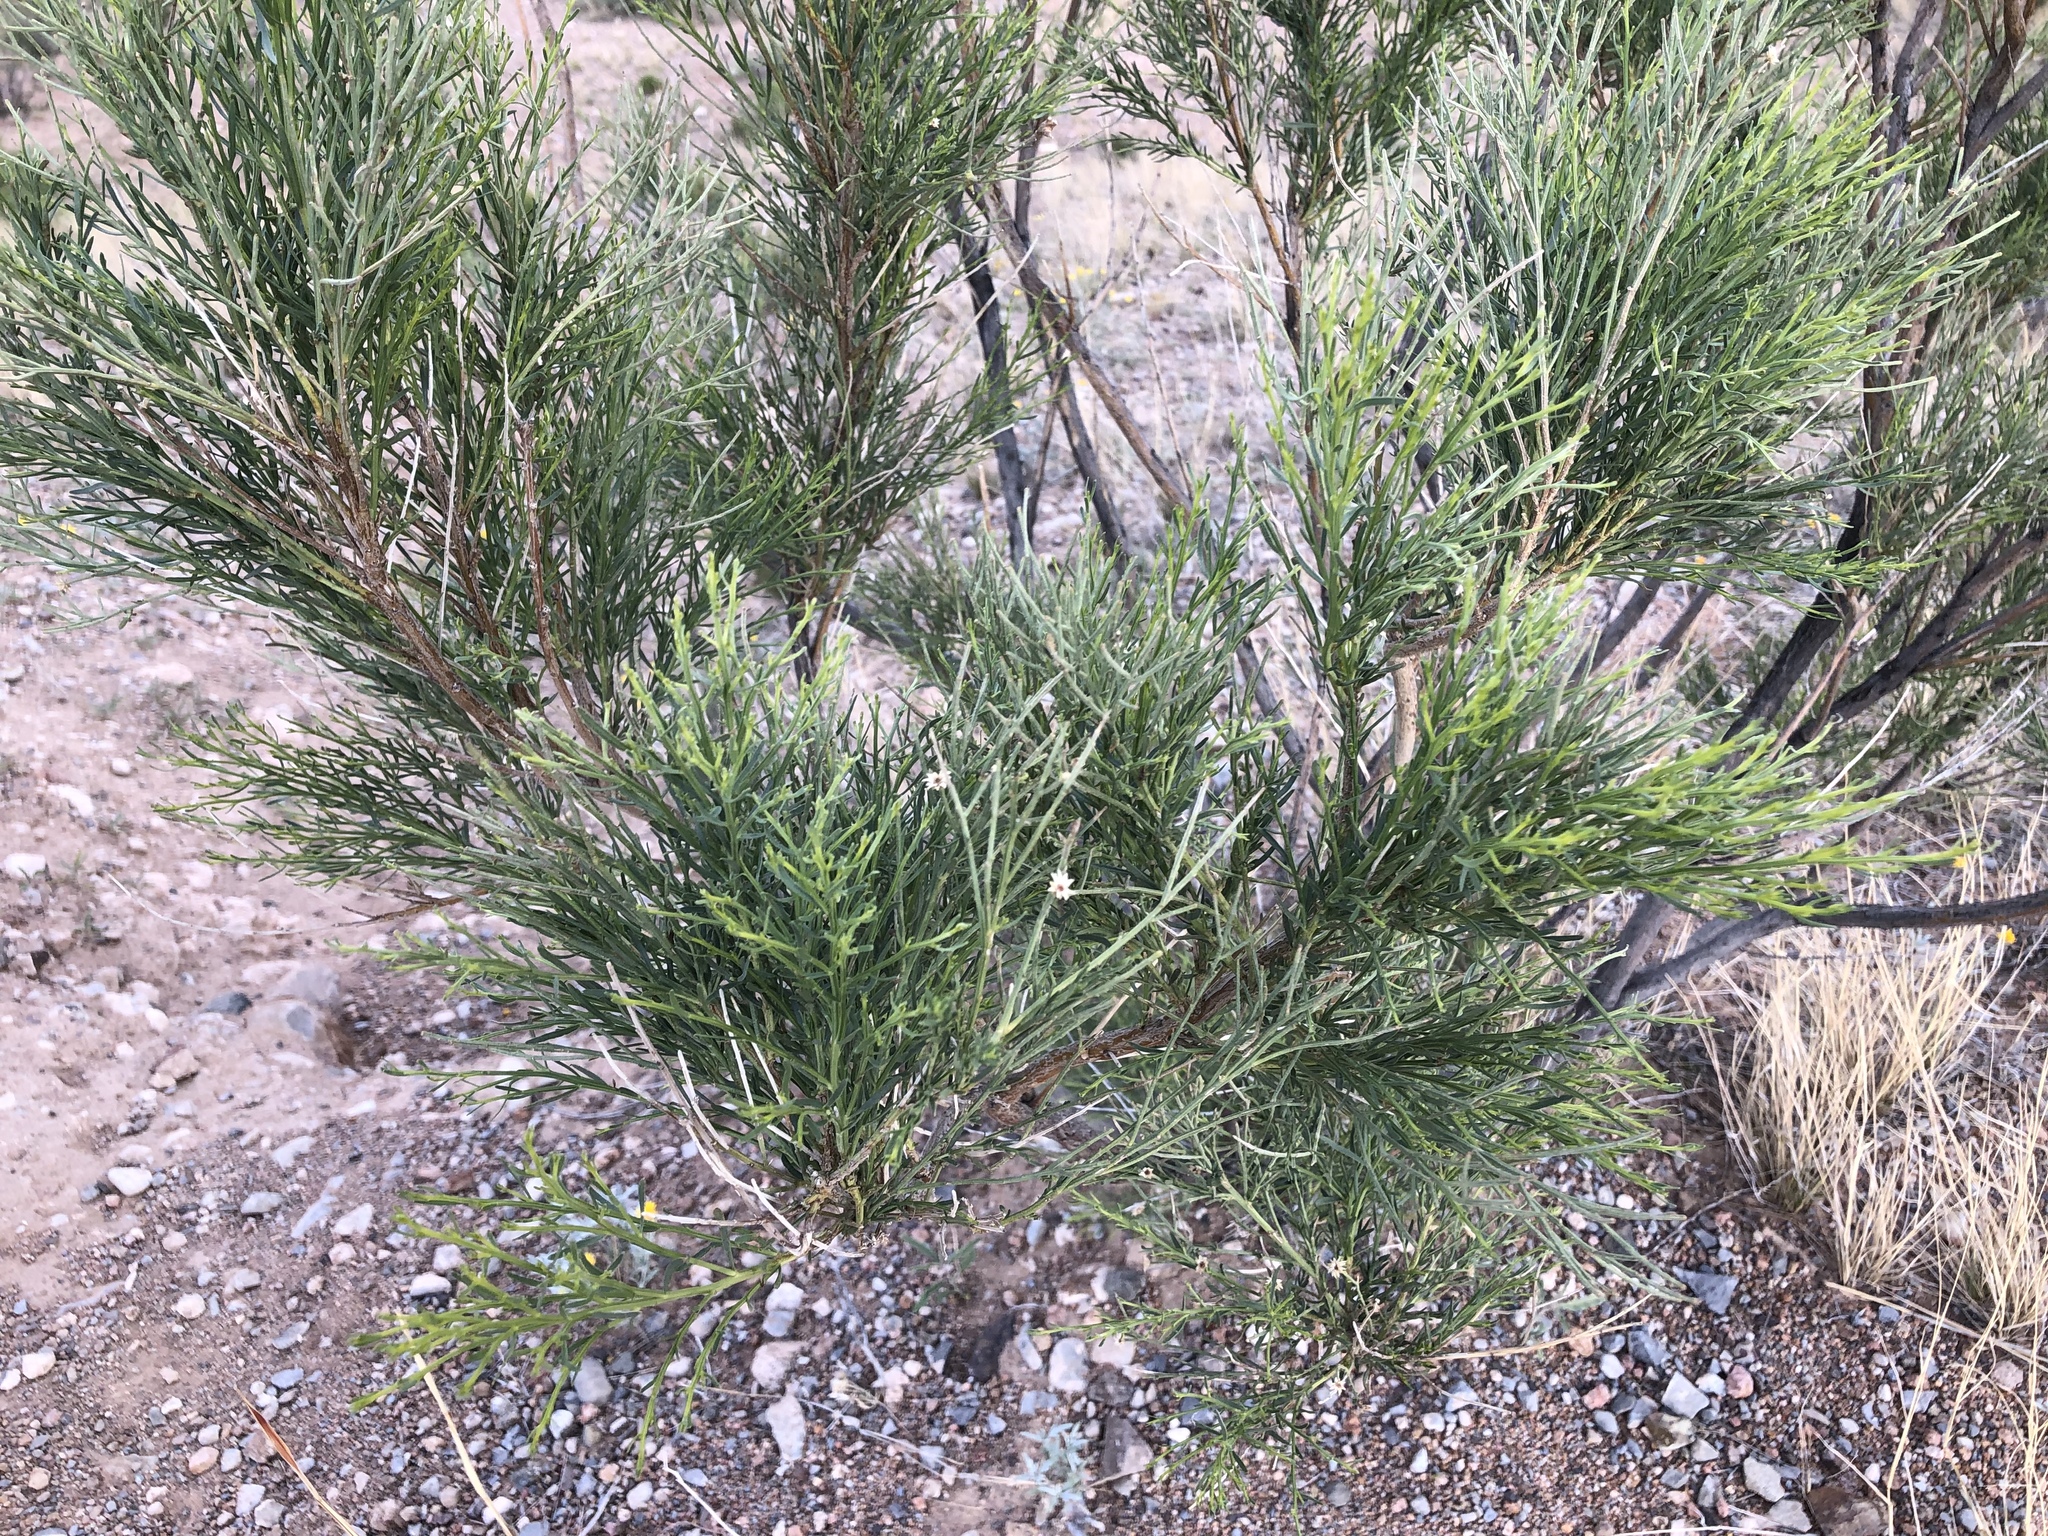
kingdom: Plantae
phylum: Tracheophyta
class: Magnoliopsida
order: Asterales
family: Asteraceae
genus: Baccharis
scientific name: Baccharis sarothroides
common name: Desert-broom
